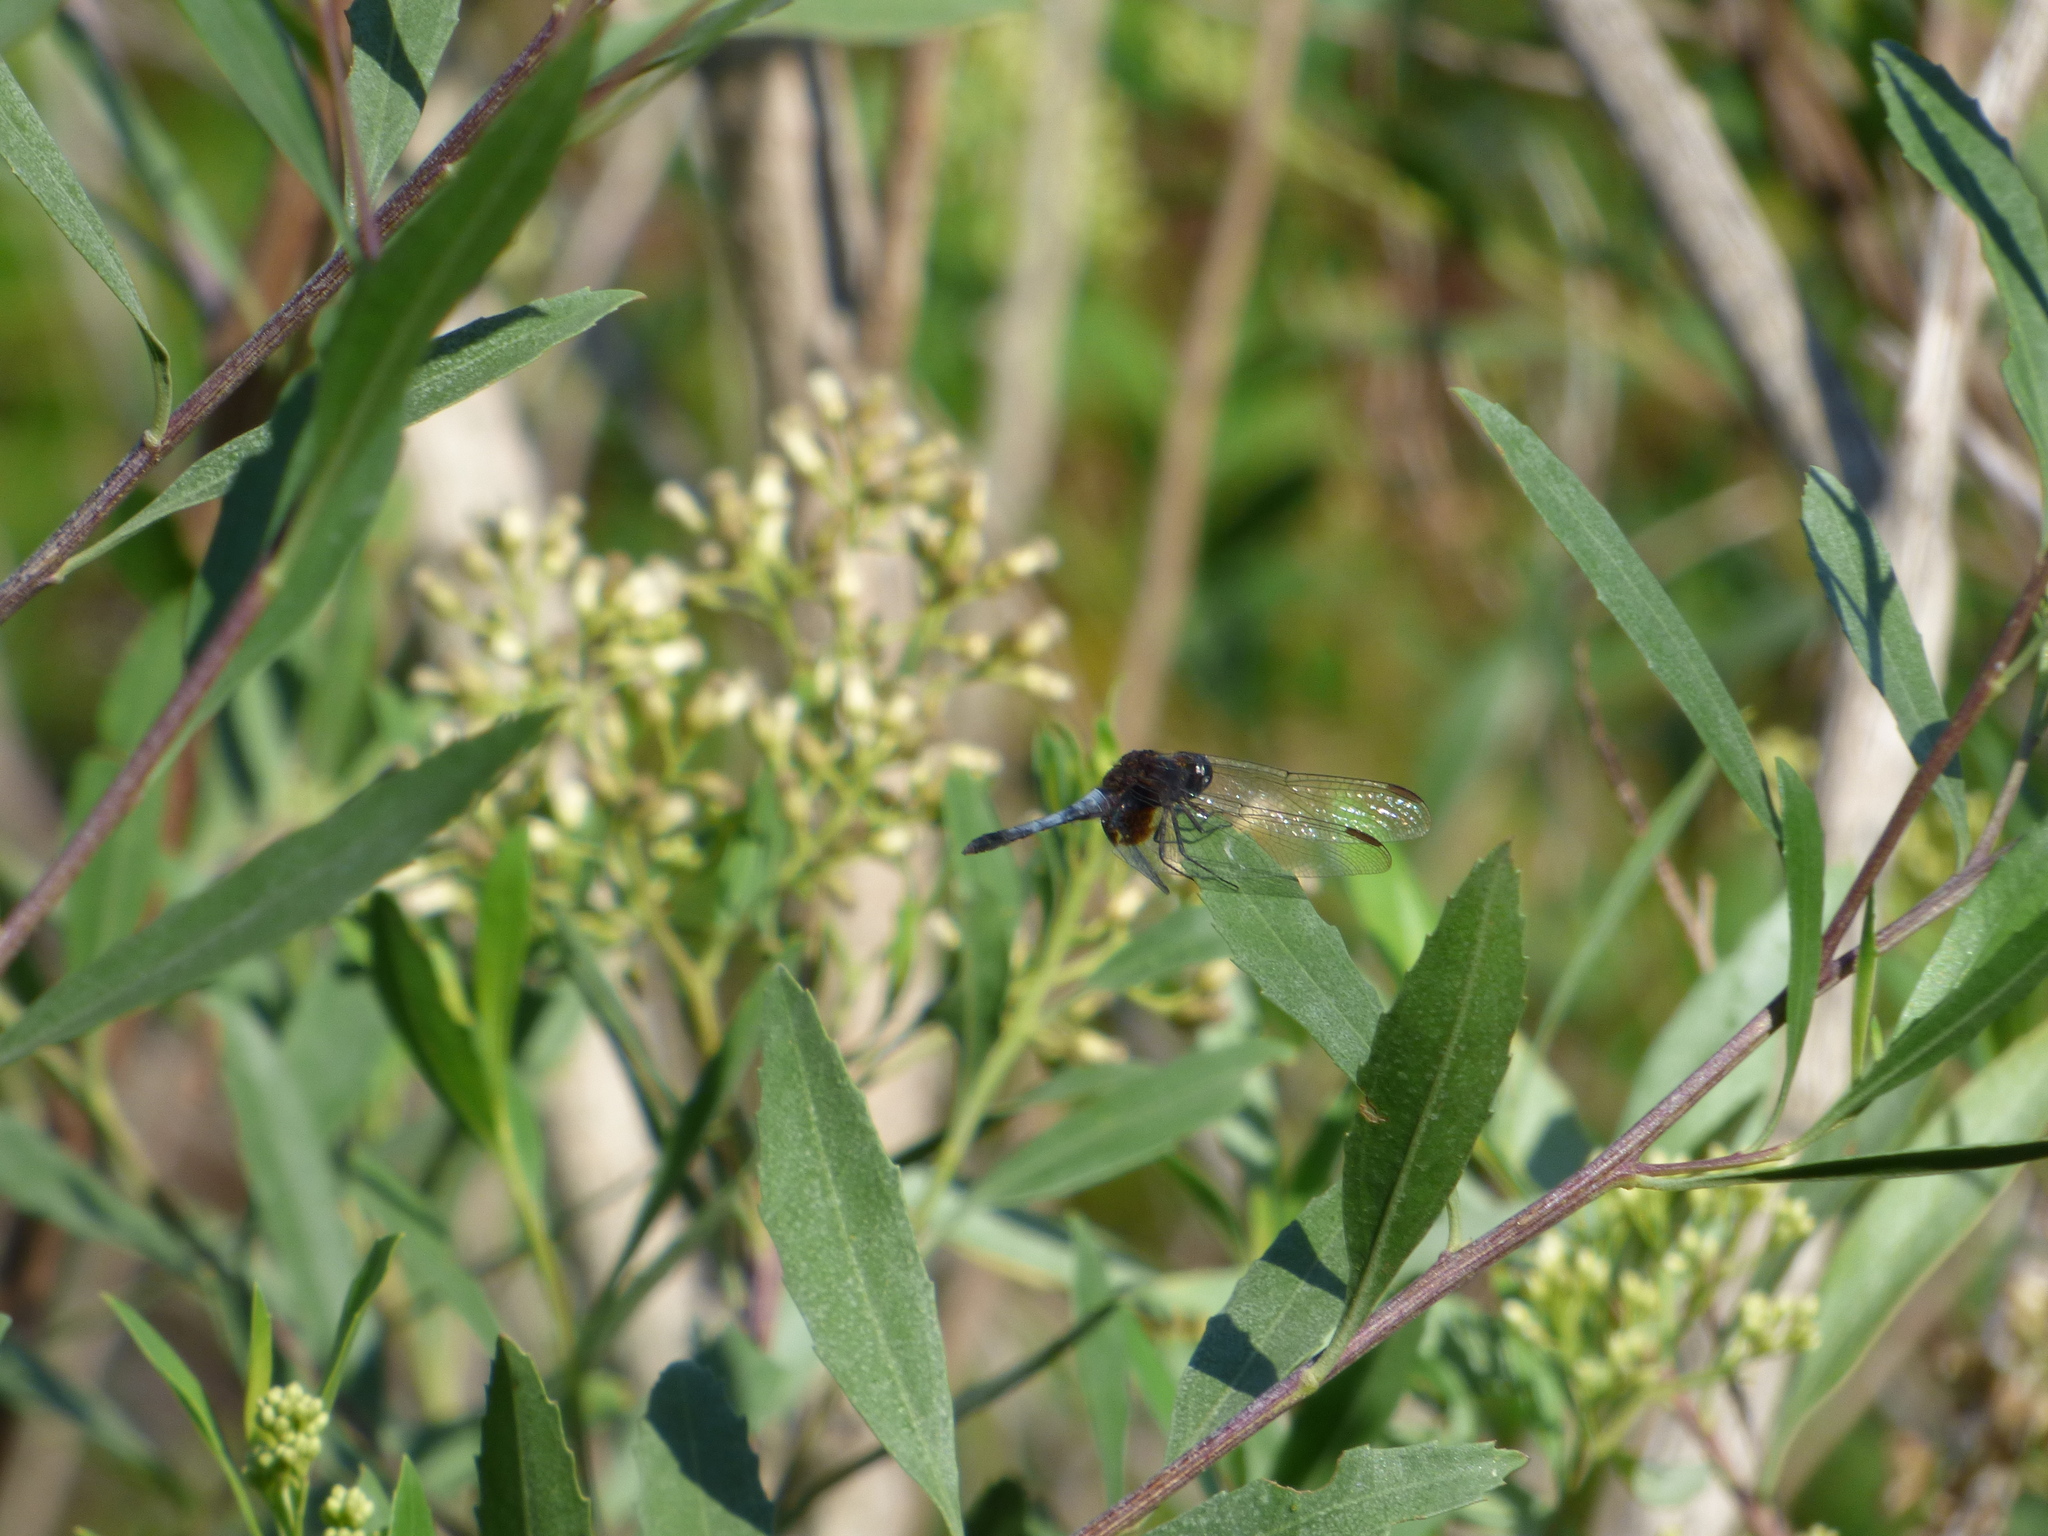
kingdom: Animalia
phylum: Arthropoda
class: Insecta
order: Odonata
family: Libellulidae
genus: Erythrodiplax
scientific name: Erythrodiplax media
